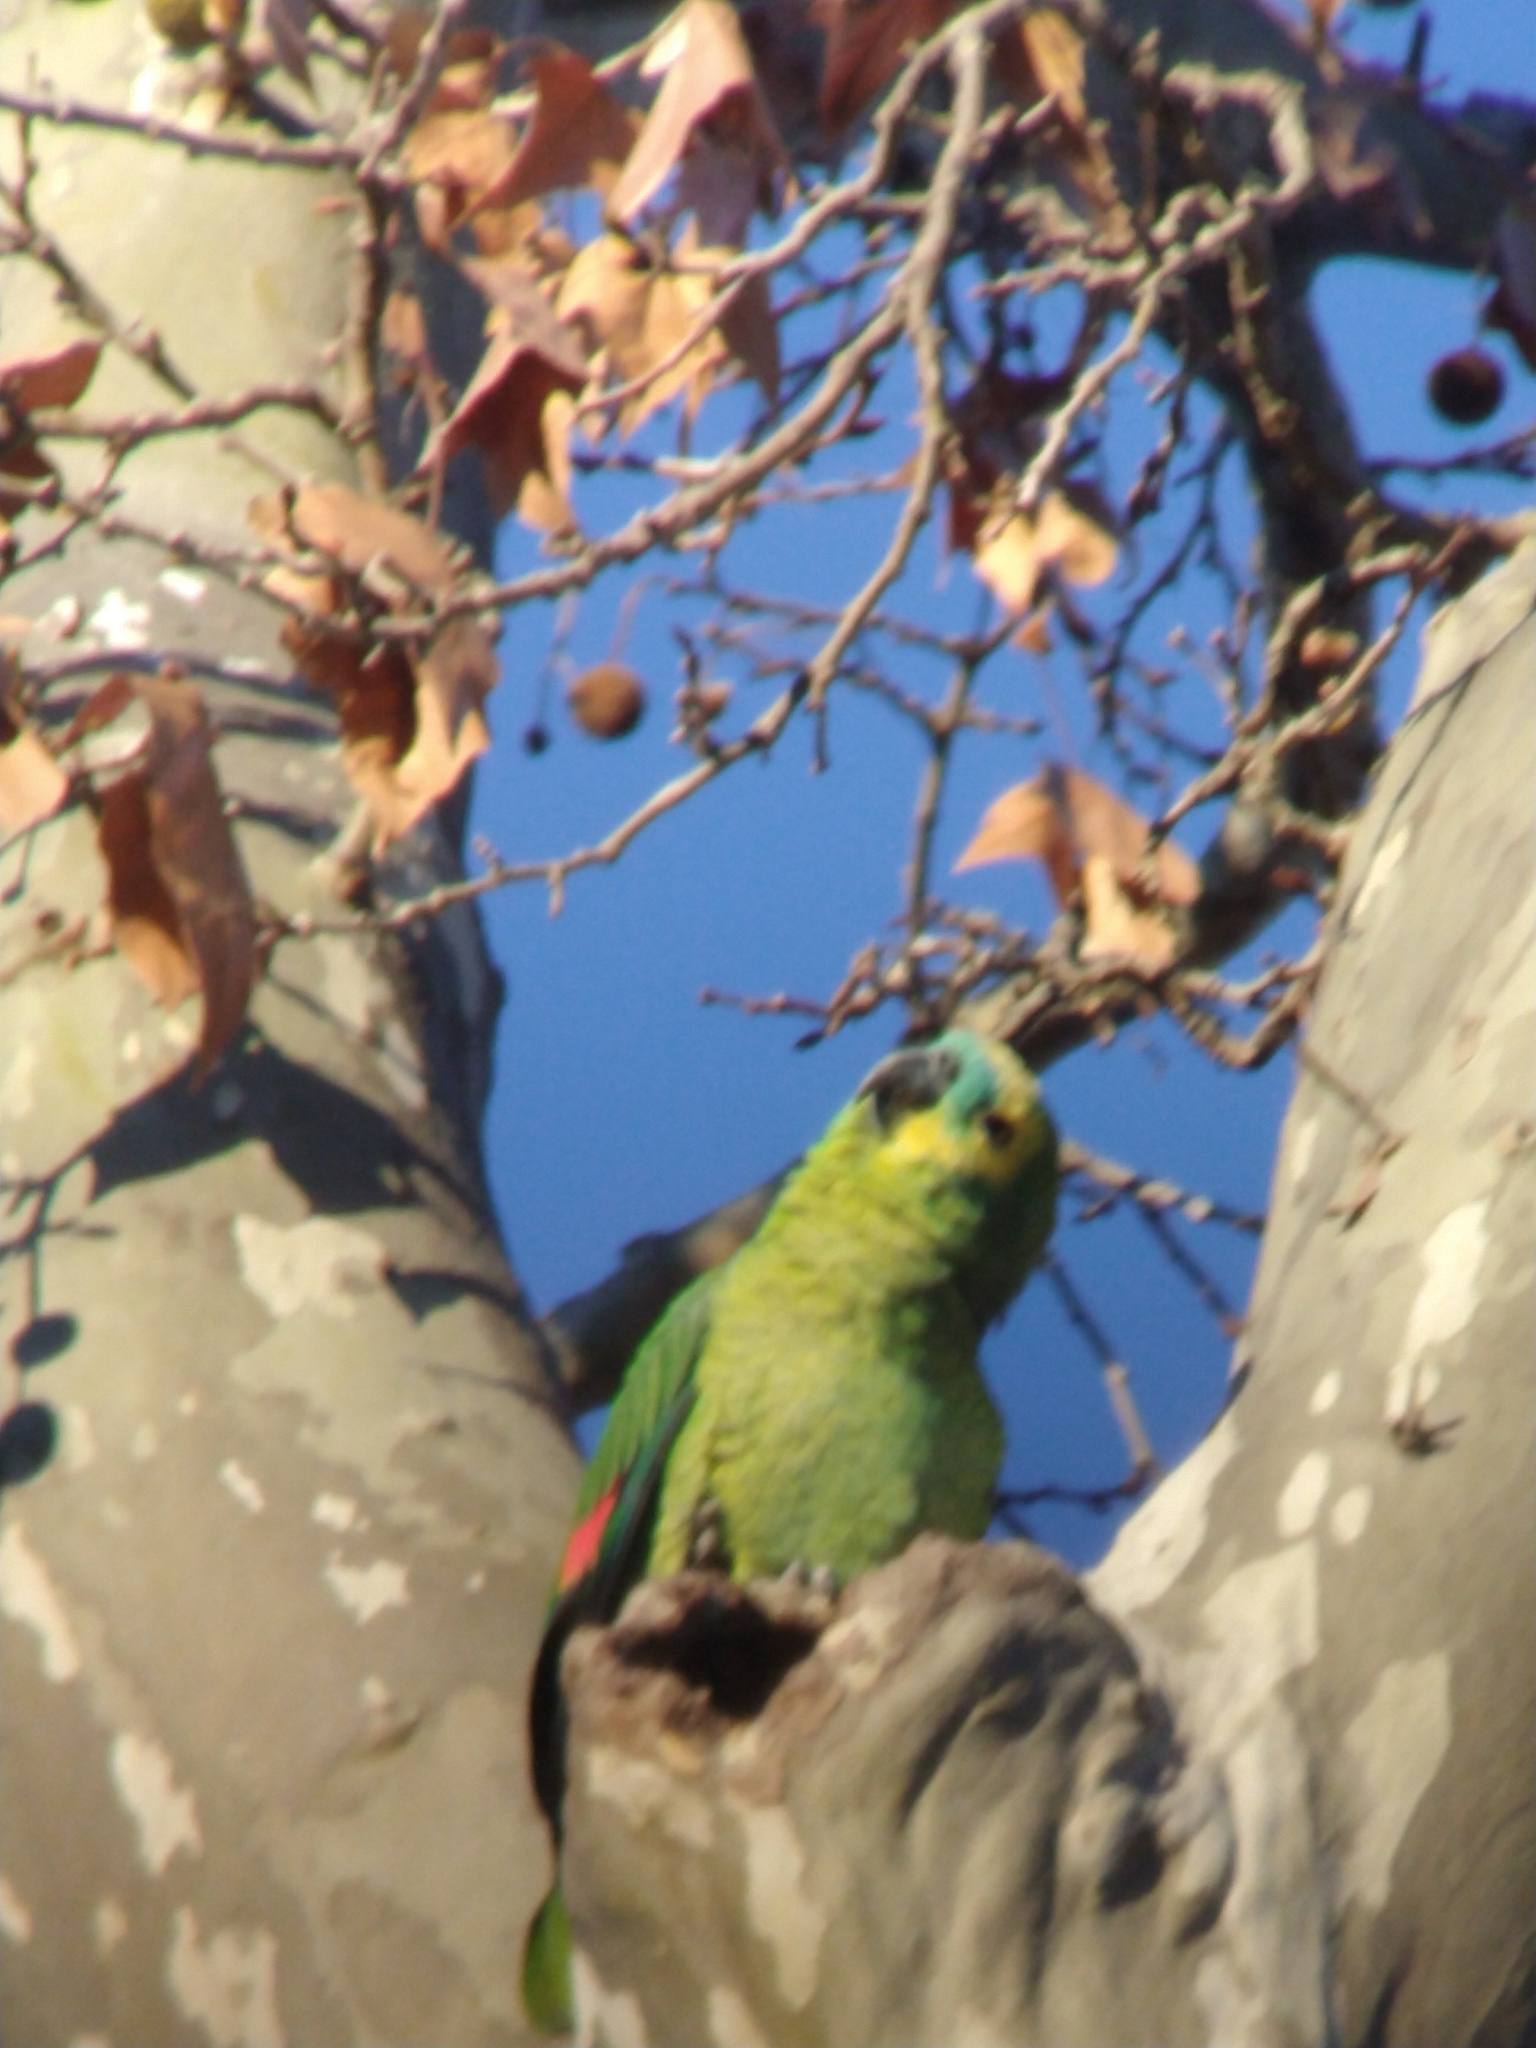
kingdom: Animalia
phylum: Chordata
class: Aves
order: Psittaciformes
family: Psittacidae
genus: Amazona
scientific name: Amazona aestiva
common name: Turquoise-fronted amazon
